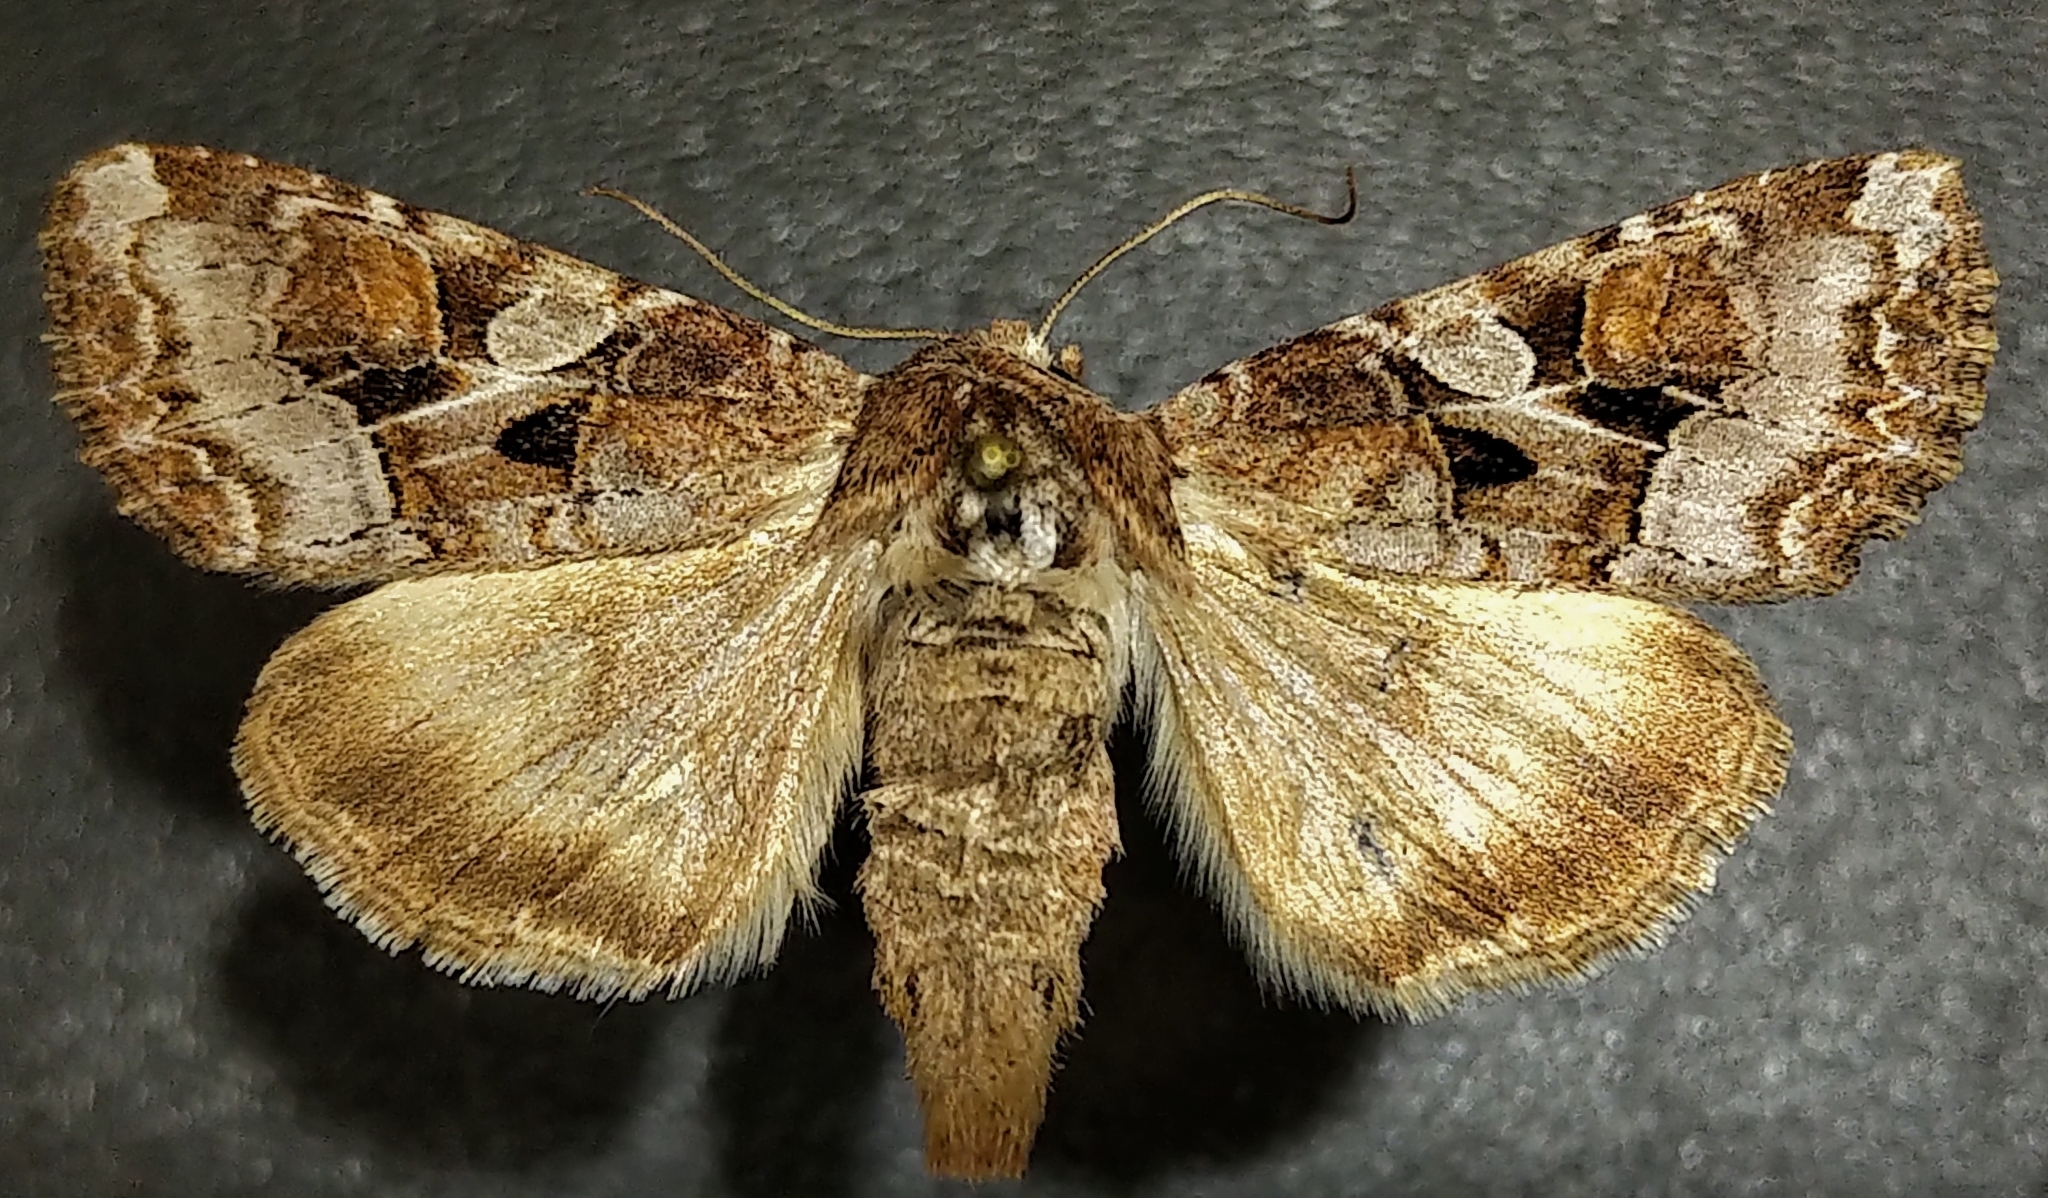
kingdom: Animalia
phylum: Arthropoda
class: Insecta
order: Lepidoptera
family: Noctuidae
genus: Trichordestra
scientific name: Trichordestra tacoma
